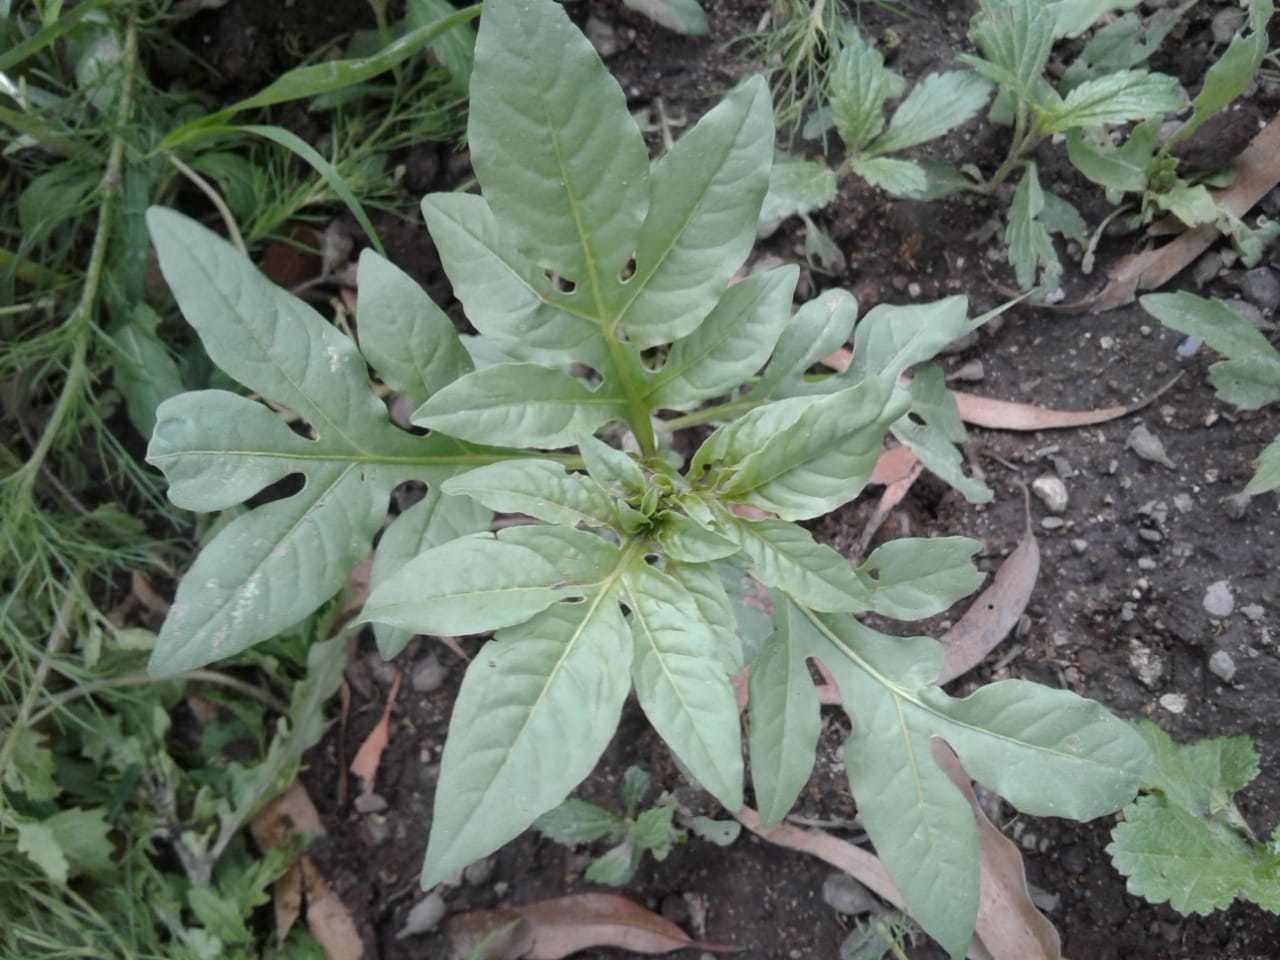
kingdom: Plantae
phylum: Tracheophyta
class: Magnoliopsida
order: Solanales
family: Solanaceae
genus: Solanum
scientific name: Solanum radicans
